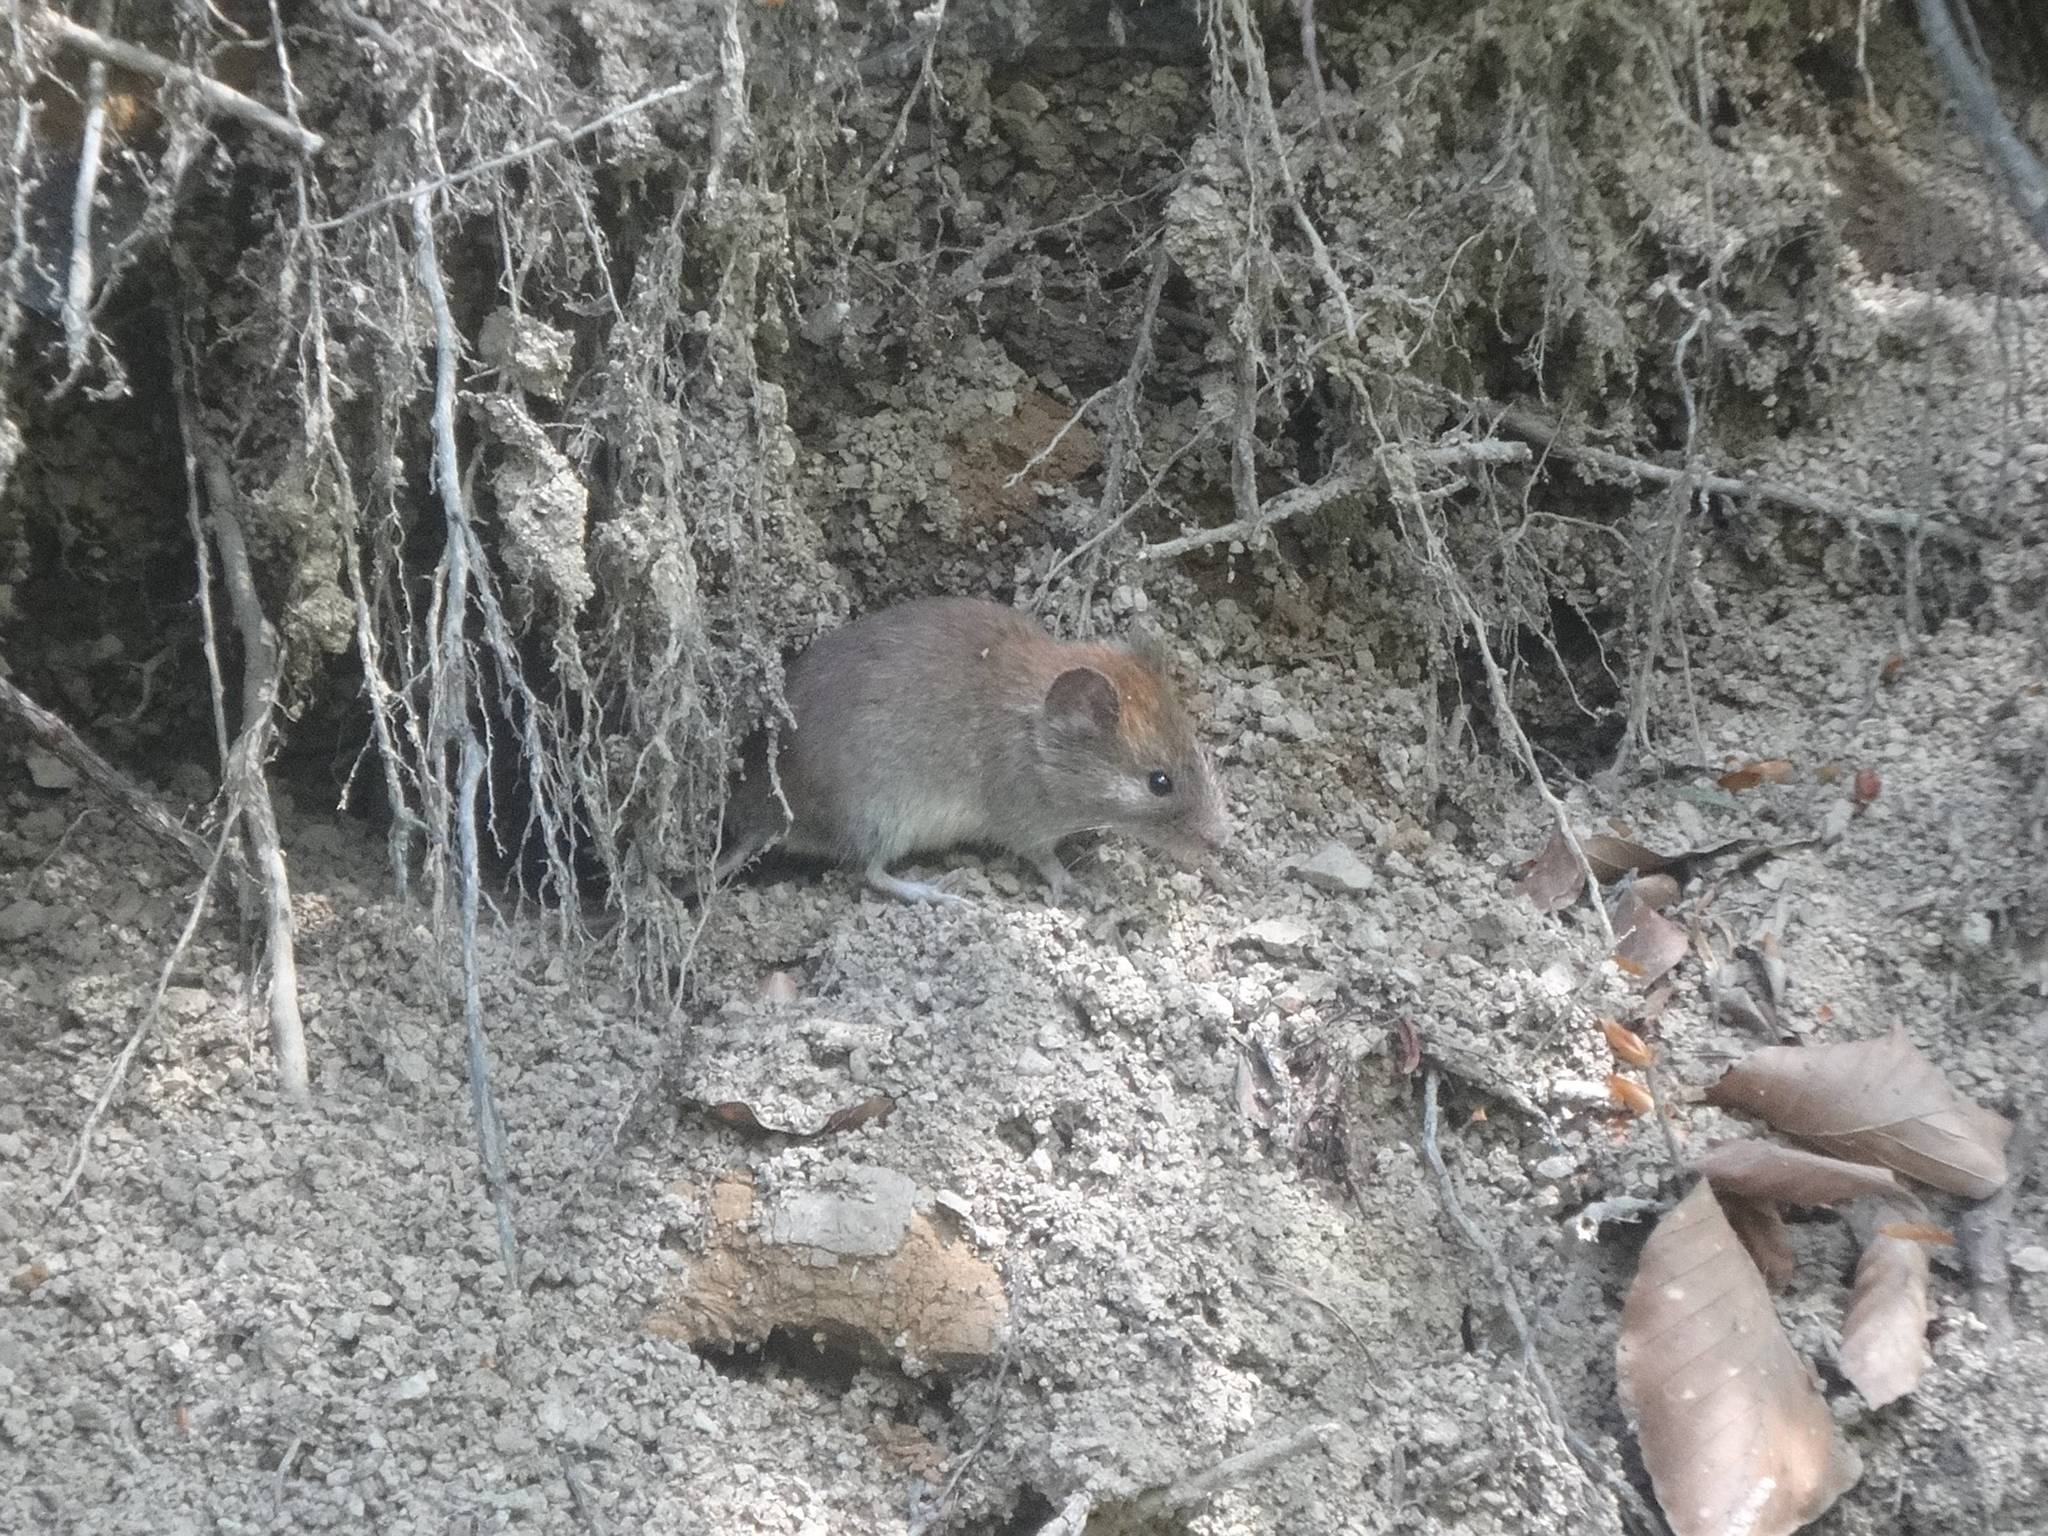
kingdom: Animalia
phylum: Chordata
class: Mammalia
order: Rodentia
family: Cricetidae
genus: Myodes
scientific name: Myodes glareolus
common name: Bank vole
